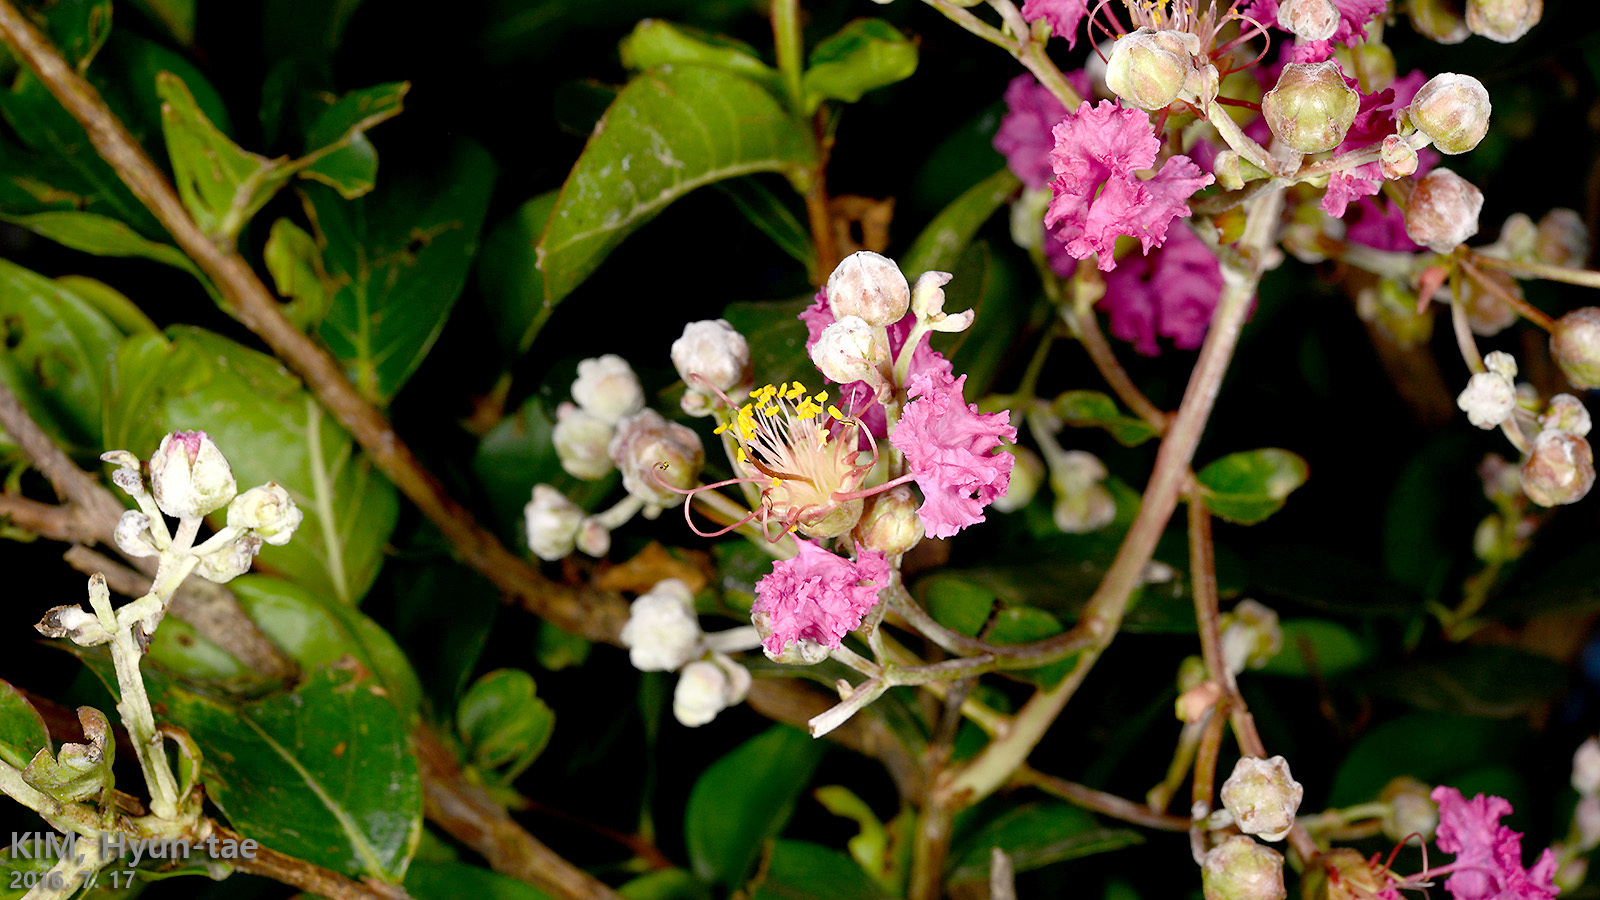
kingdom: Plantae
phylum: Tracheophyta
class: Magnoliopsida
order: Myrtales
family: Lythraceae
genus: Lagerstroemia
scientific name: Lagerstroemia indica
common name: Crape-myrtle
